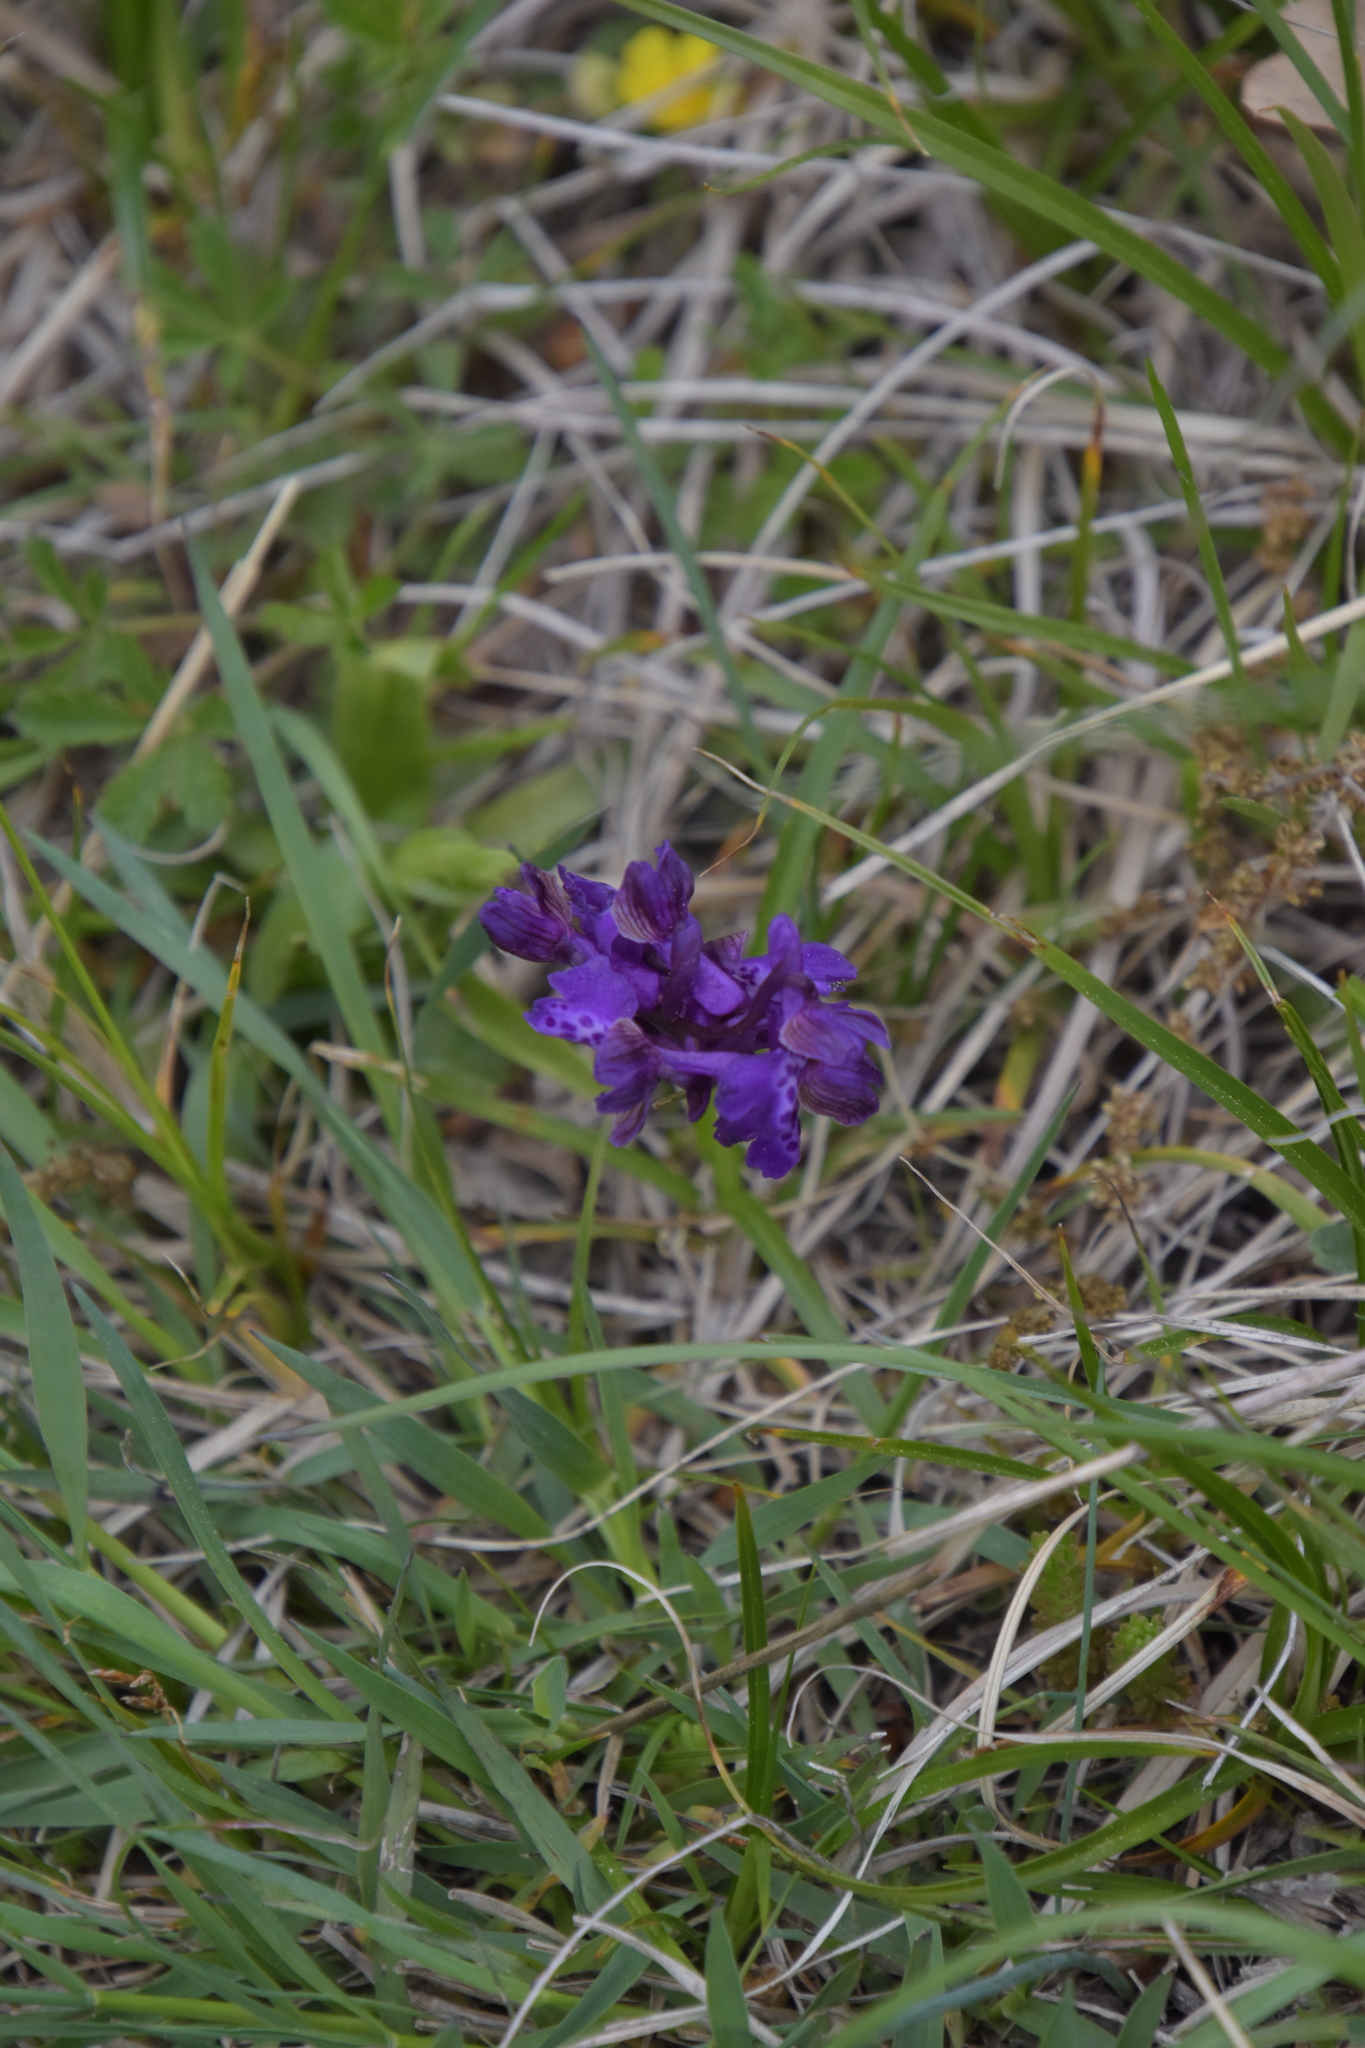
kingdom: Plantae
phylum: Tracheophyta
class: Liliopsida
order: Asparagales
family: Orchidaceae
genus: Anacamptis
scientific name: Anacamptis morio
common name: Green-winged orchid
